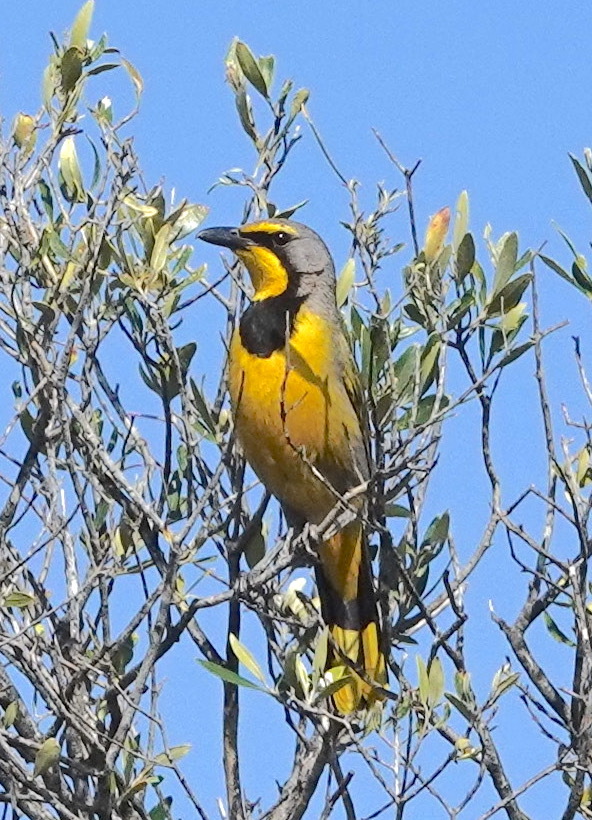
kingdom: Animalia
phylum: Chordata
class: Aves
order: Passeriformes
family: Malaconotidae
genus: Telophorus
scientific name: Telophorus zeylonus
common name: Bokmakierie
